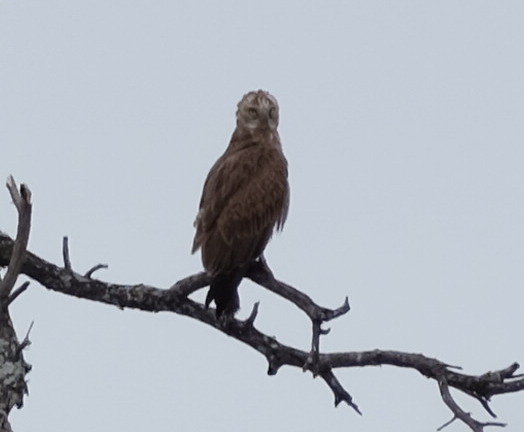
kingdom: Animalia
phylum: Chordata
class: Aves
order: Accipitriformes
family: Accipitridae
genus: Circaetus
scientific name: Circaetus cinereus
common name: Brown snake eagle
